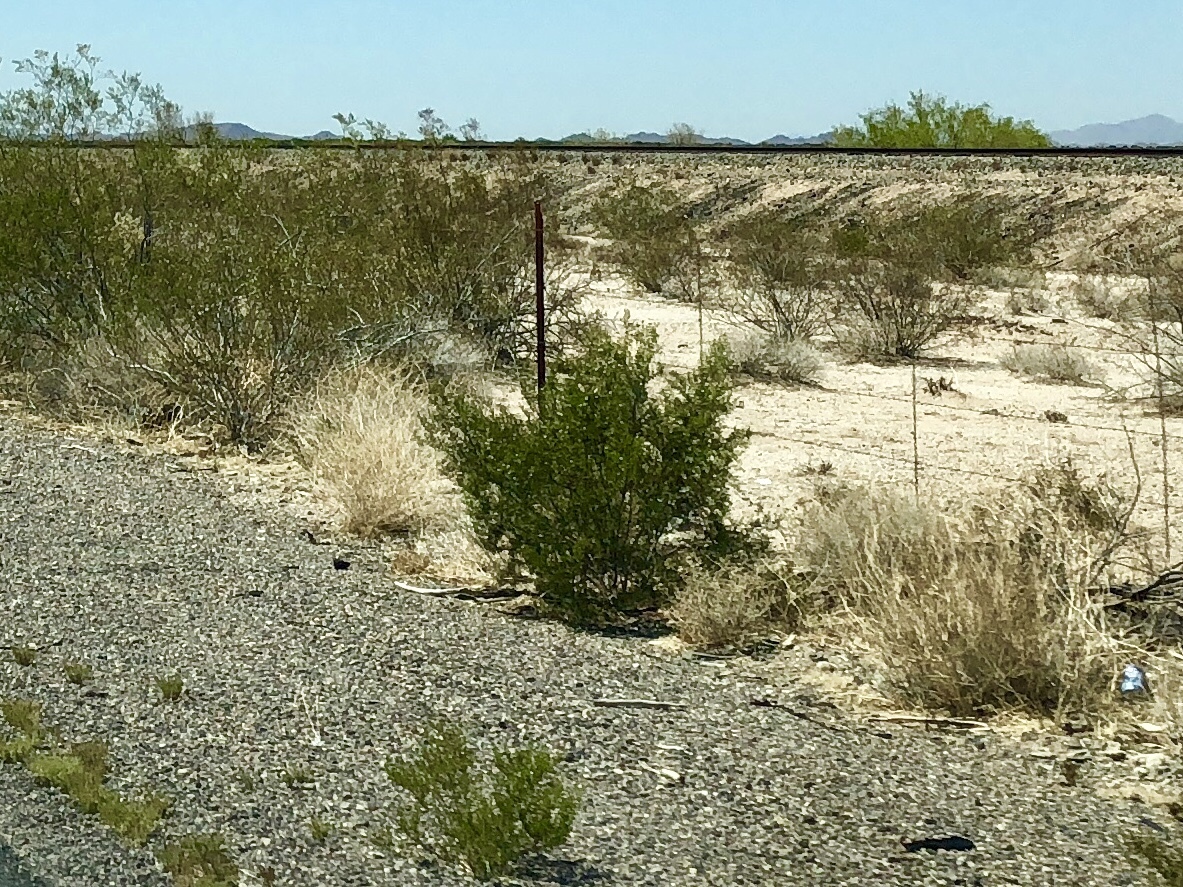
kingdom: Plantae
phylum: Tracheophyta
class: Magnoliopsida
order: Zygophyllales
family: Zygophyllaceae
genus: Larrea
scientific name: Larrea tridentata
